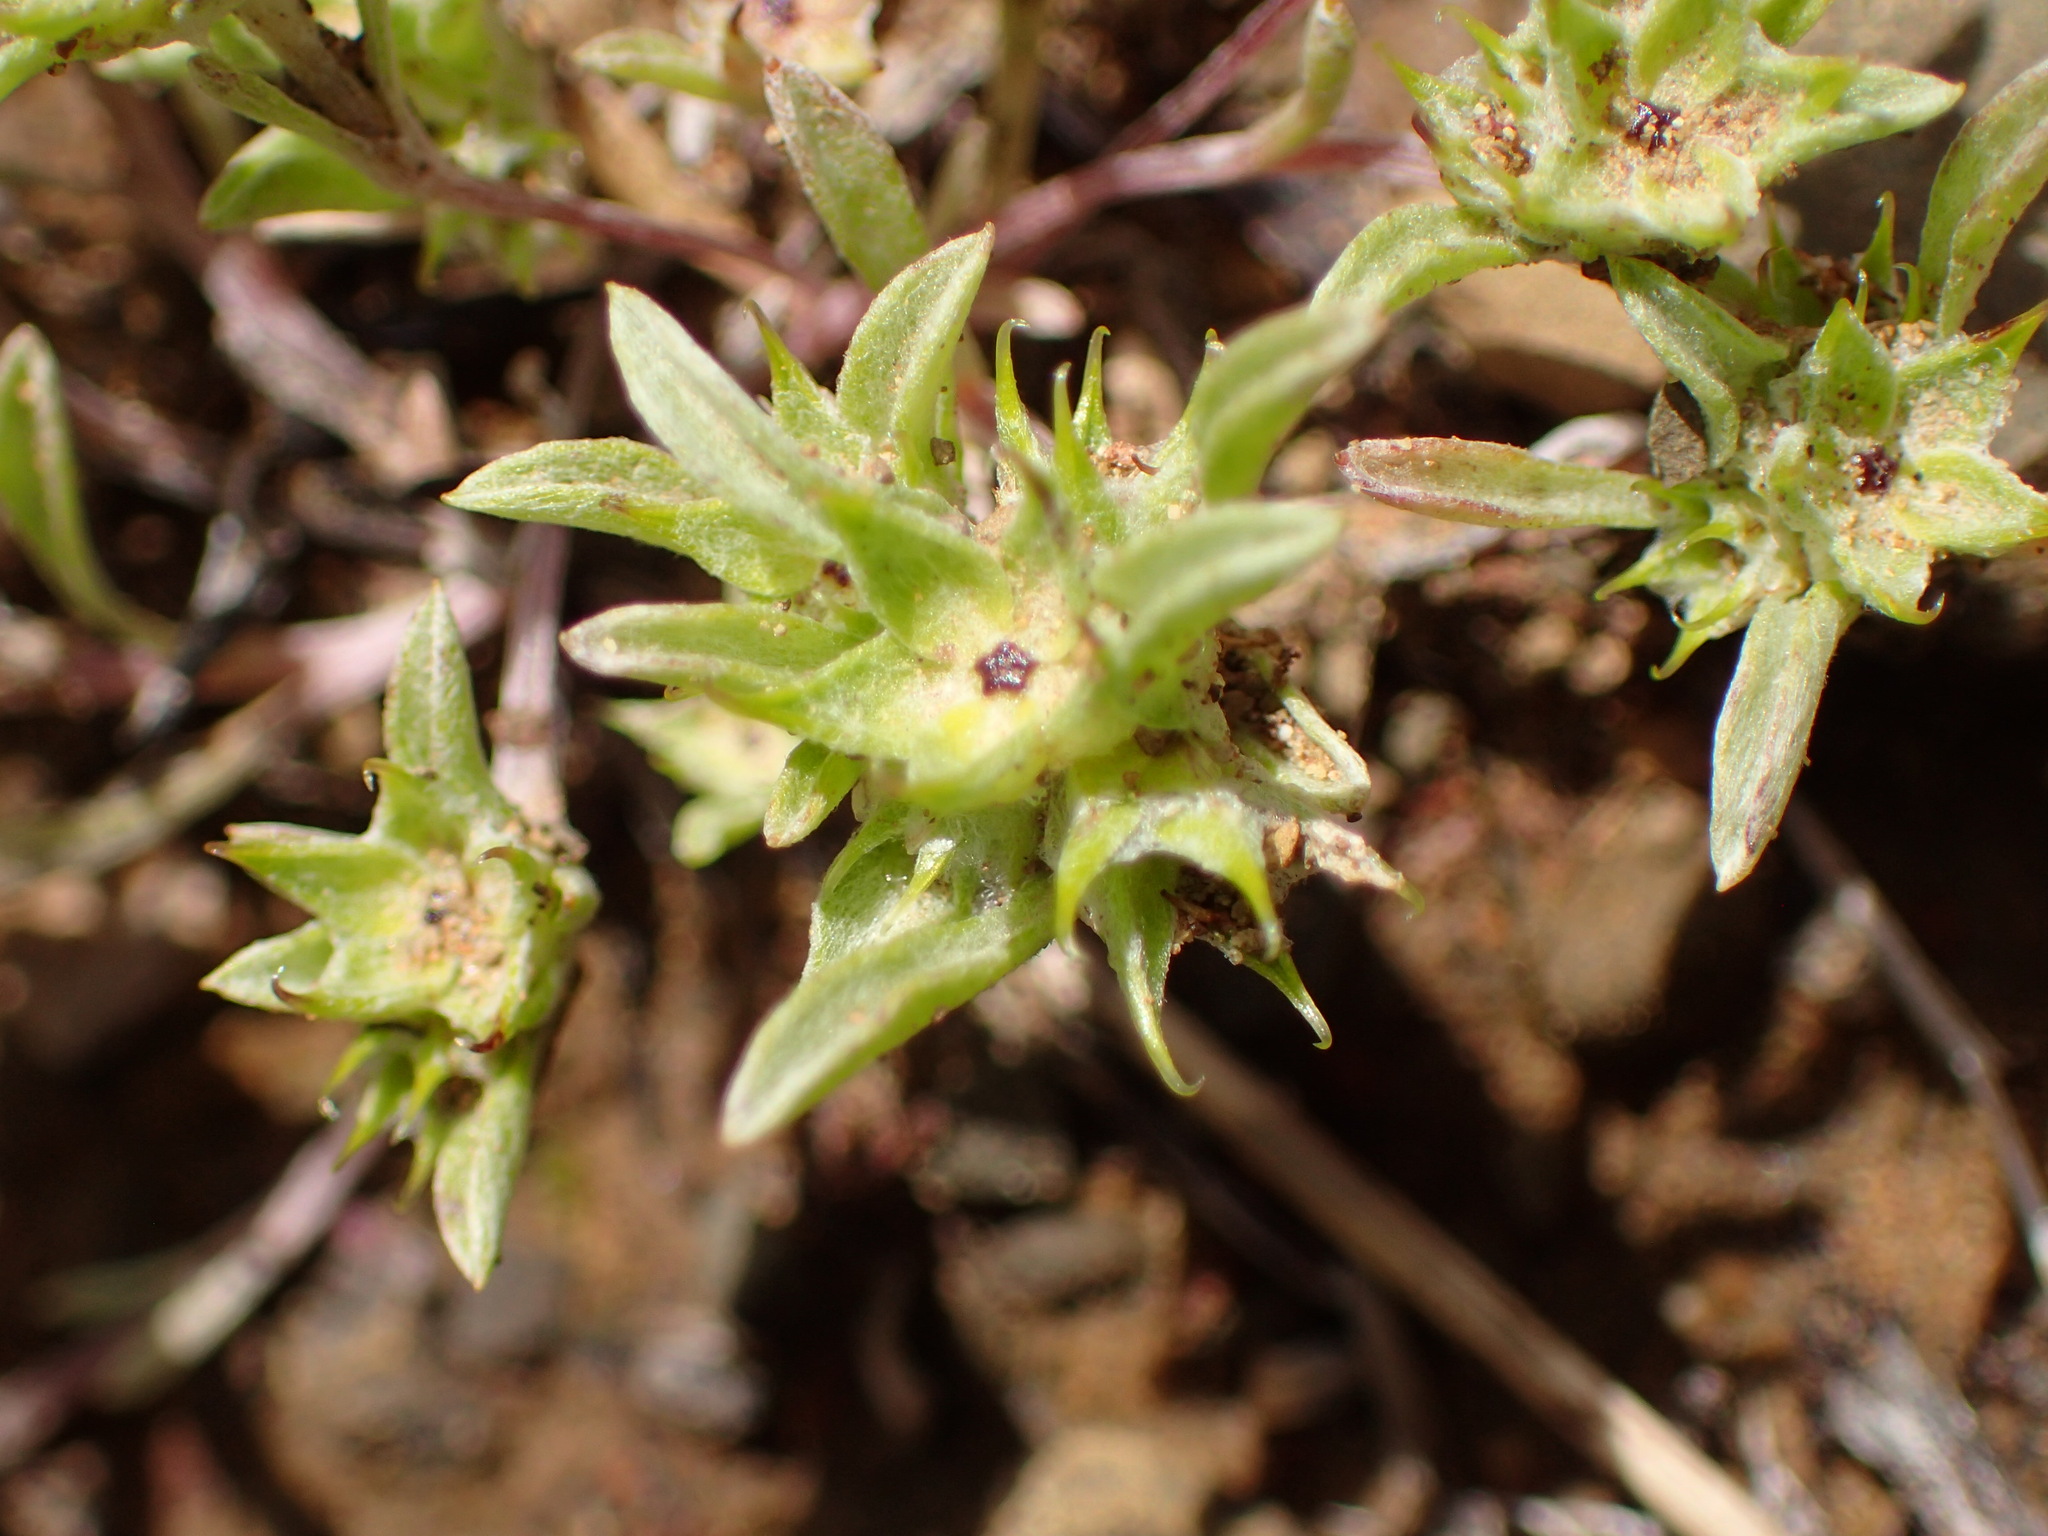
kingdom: Plantae
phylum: Tracheophyta
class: Magnoliopsida
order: Asterales
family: Asteraceae
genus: Ancistrocarphus
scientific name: Ancistrocarphus filagineus
